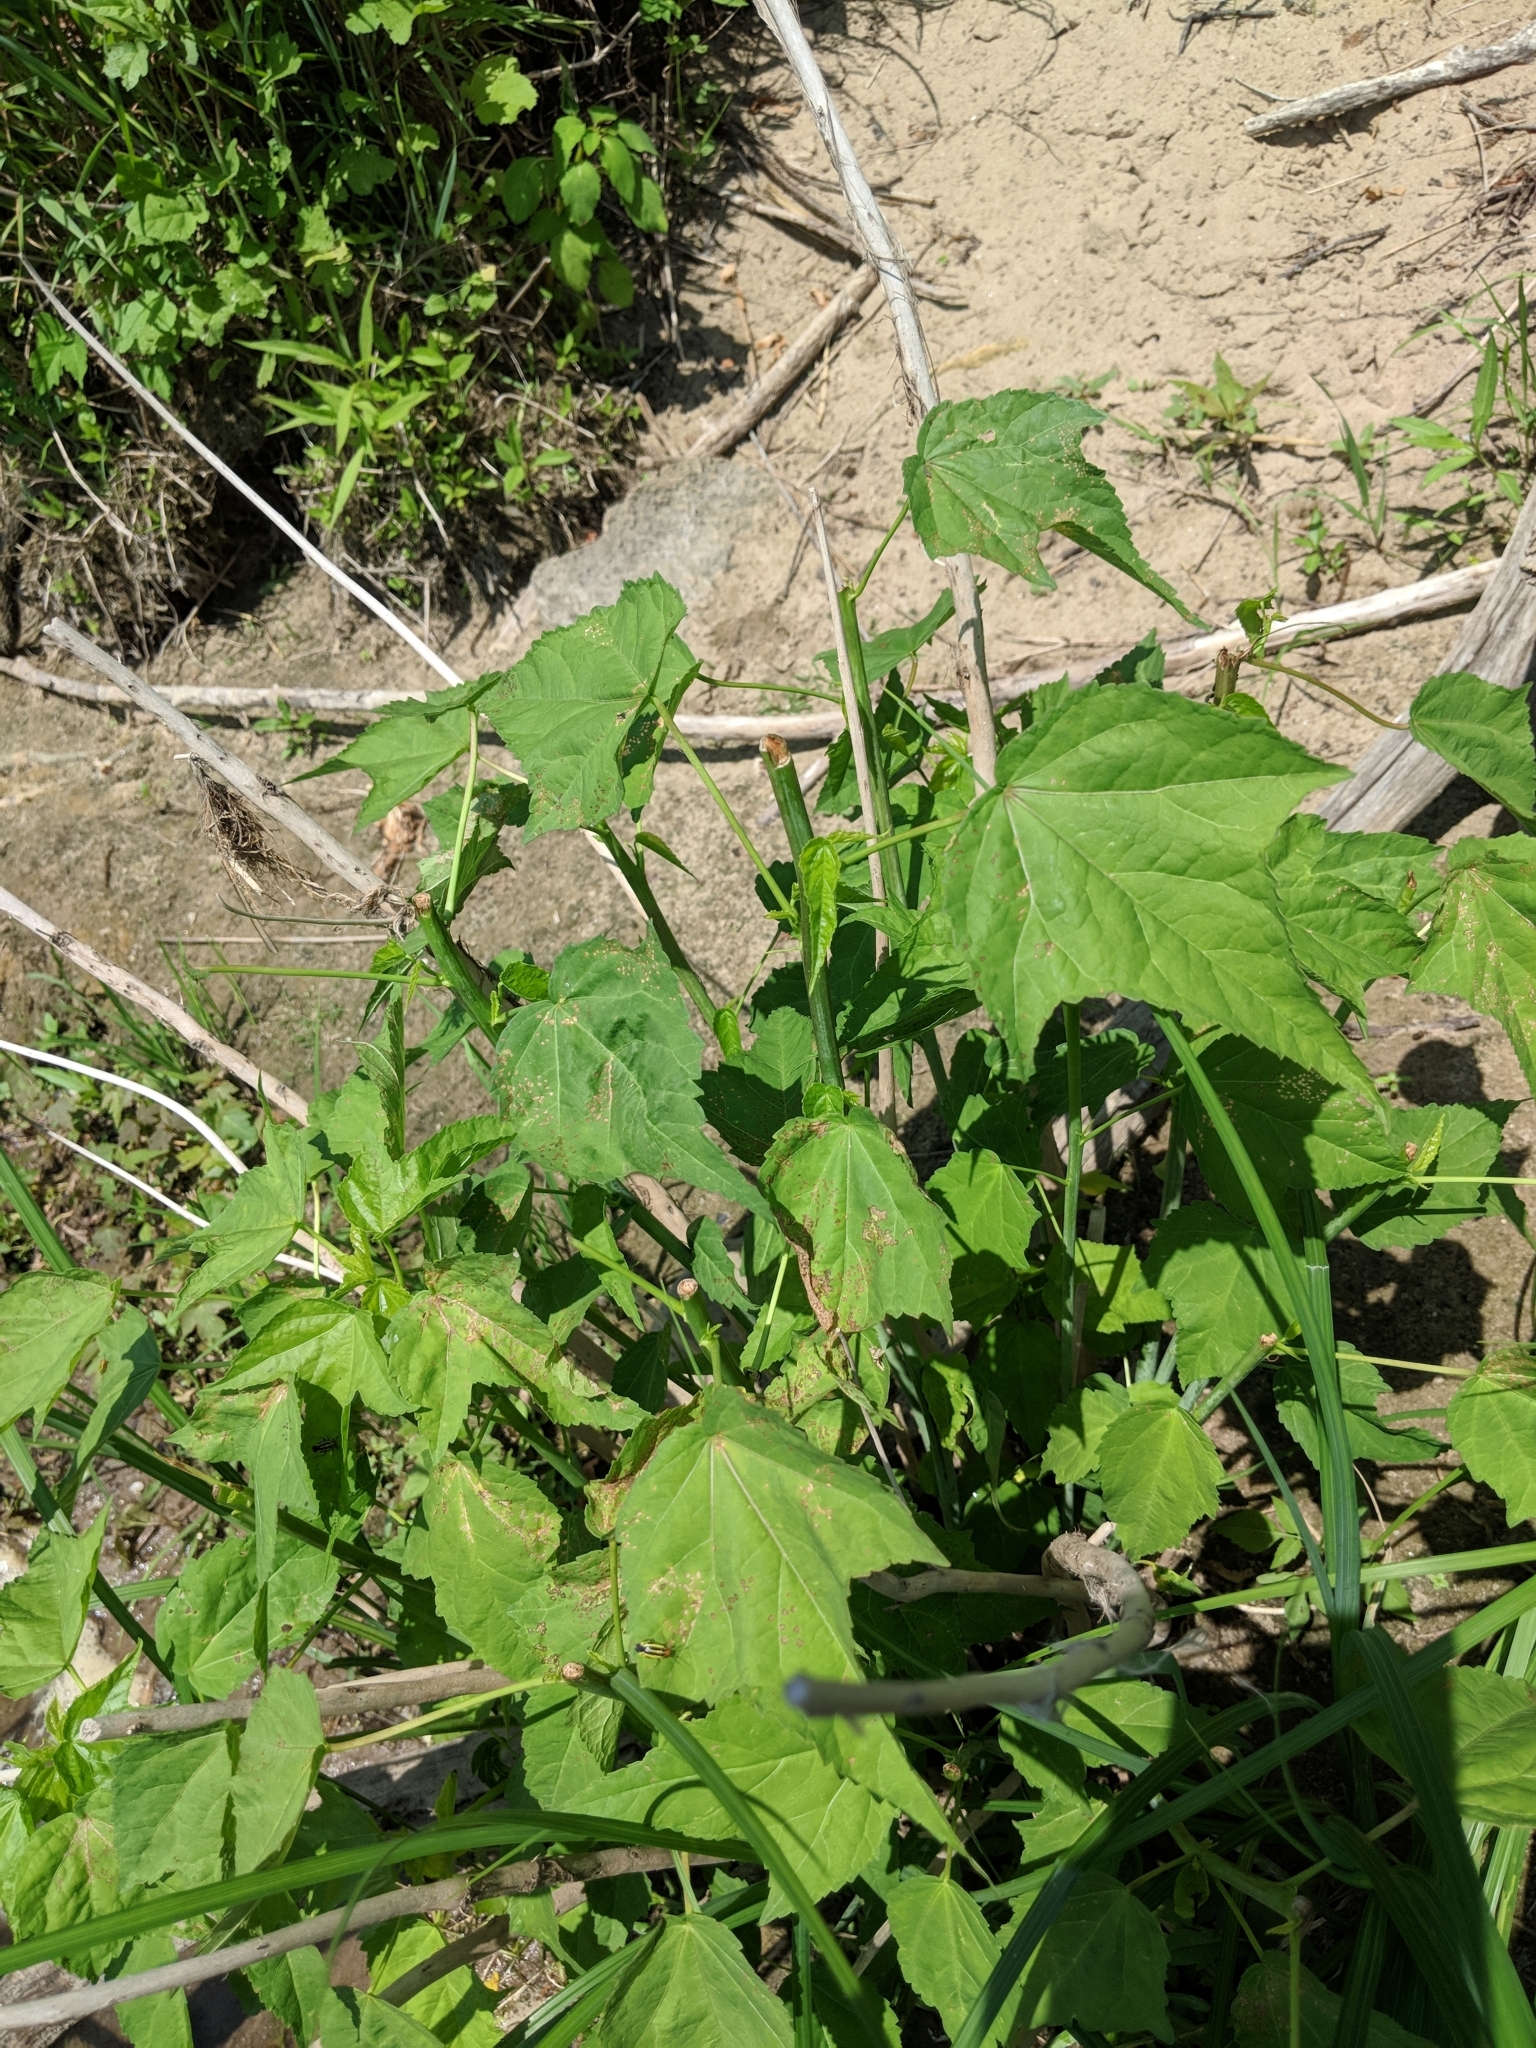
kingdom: Plantae
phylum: Tracheophyta
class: Magnoliopsida
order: Malvales
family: Malvaceae
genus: Hibiscus
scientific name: Hibiscus laevis
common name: Scarlet rose-mallow
